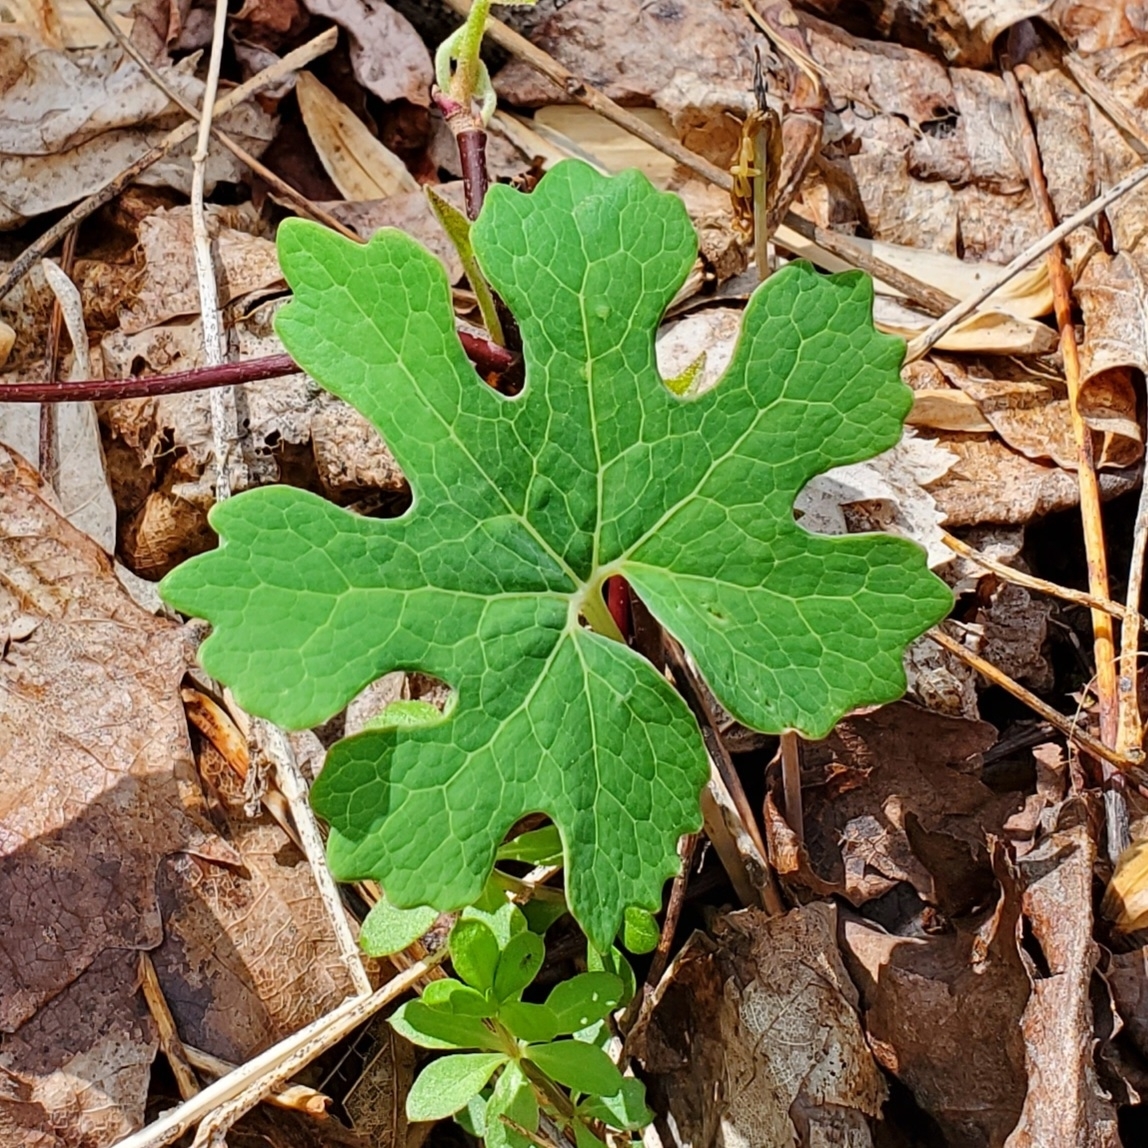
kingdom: Plantae
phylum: Tracheophyta
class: Magnoliopsida
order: Ranunculales
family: Papaveraceae
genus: Sanguinaria
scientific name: Sanguinaria canadensis
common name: Bloodroot
